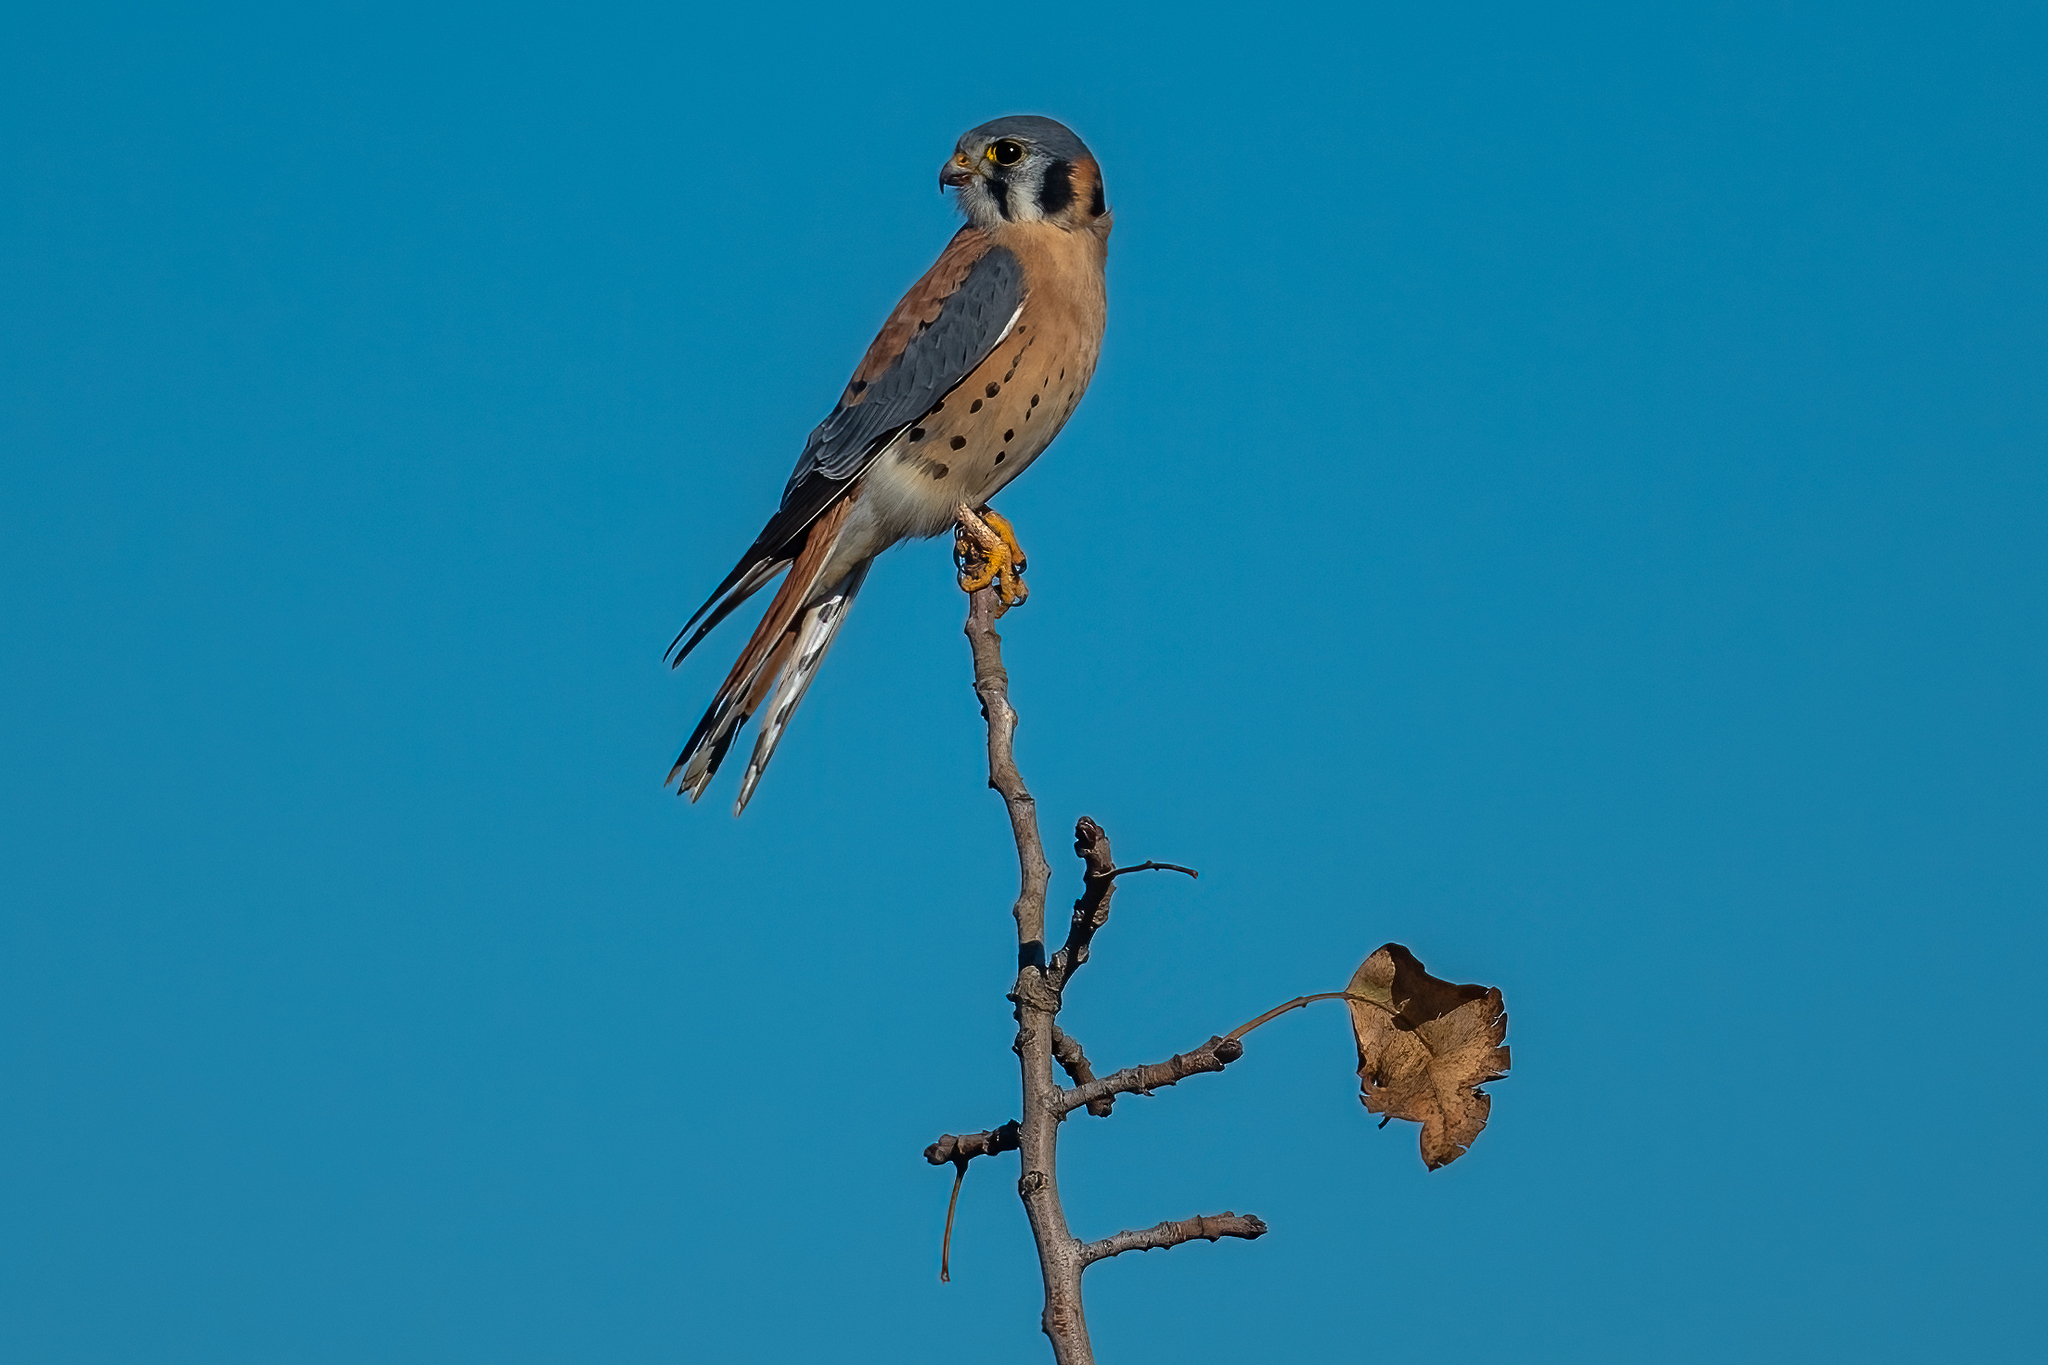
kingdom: Animalia
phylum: Chordata
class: Aves
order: Falconiformes
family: Falconidae
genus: Falco
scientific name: Falco sparverius
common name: American kestrel
